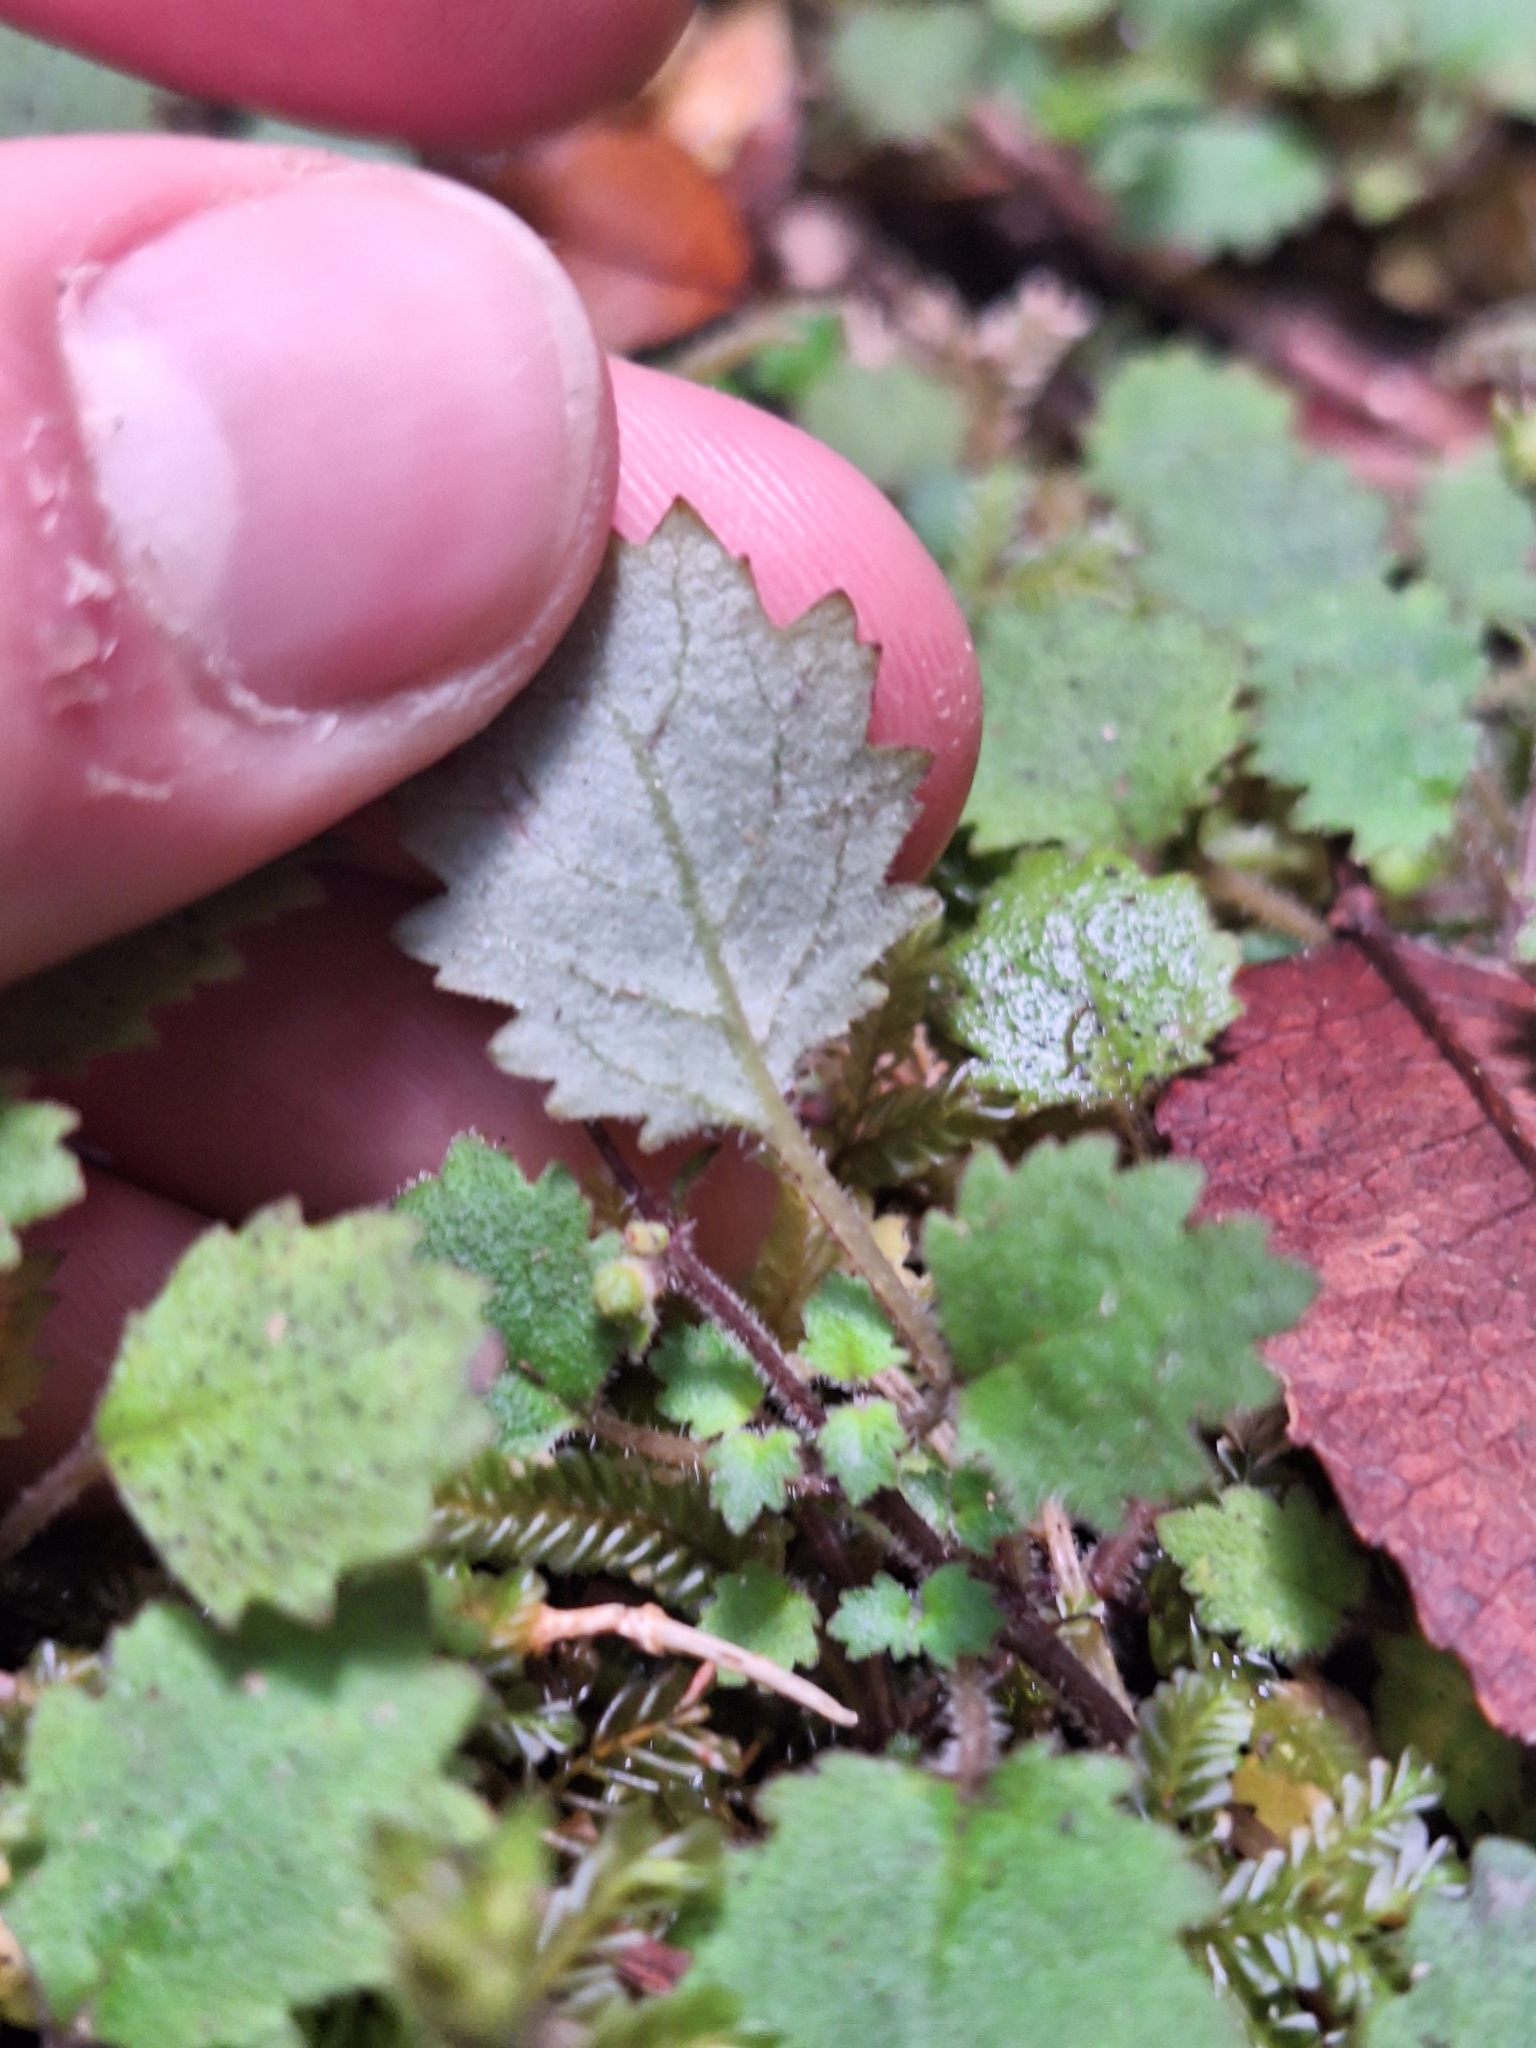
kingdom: Plantae
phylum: Tracheophyta
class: Magnoliopsida
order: Lamiales
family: Calceolariaceae
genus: Jovellana
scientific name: Jovellana repens
